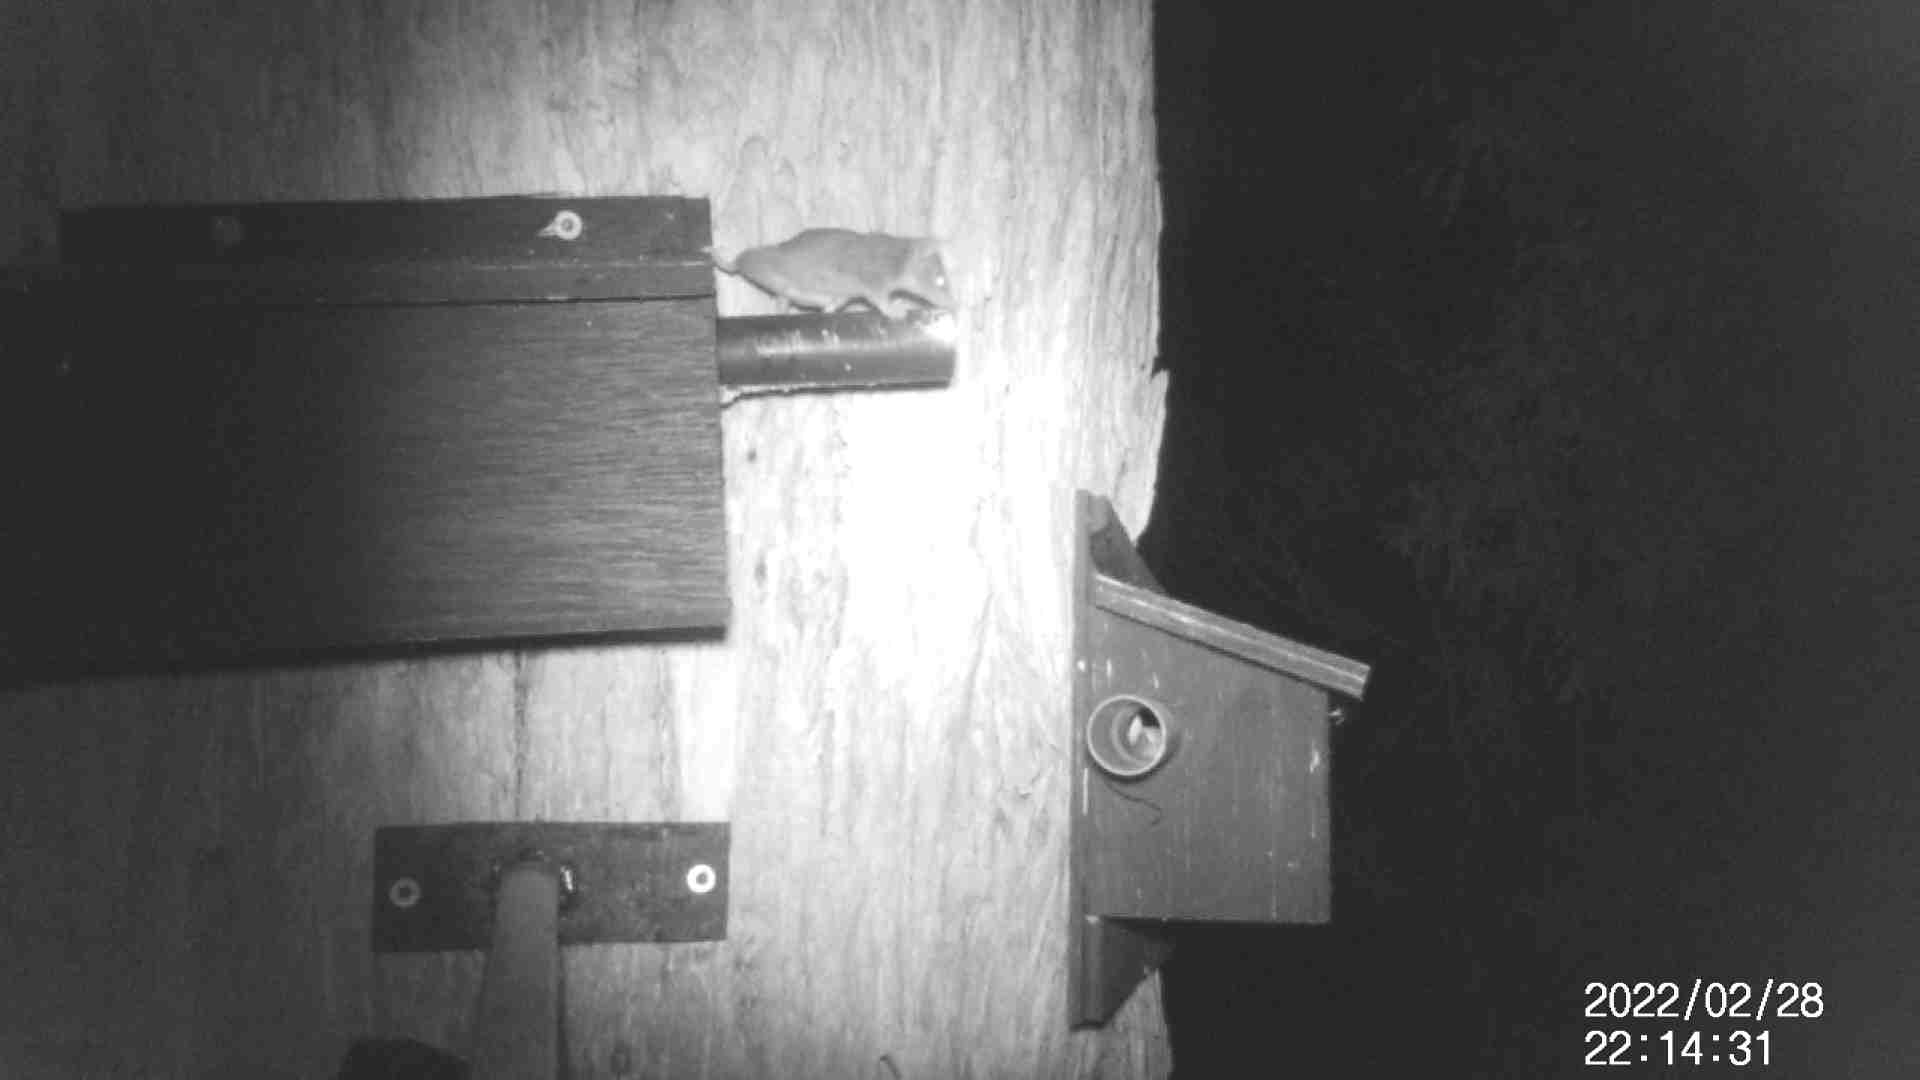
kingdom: Animalia
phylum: Chordata
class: Mammalia
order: Dasyuromorphia
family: Dasyuridae
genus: Antechinus
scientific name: Antechinus agilis
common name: Agile antechinus
